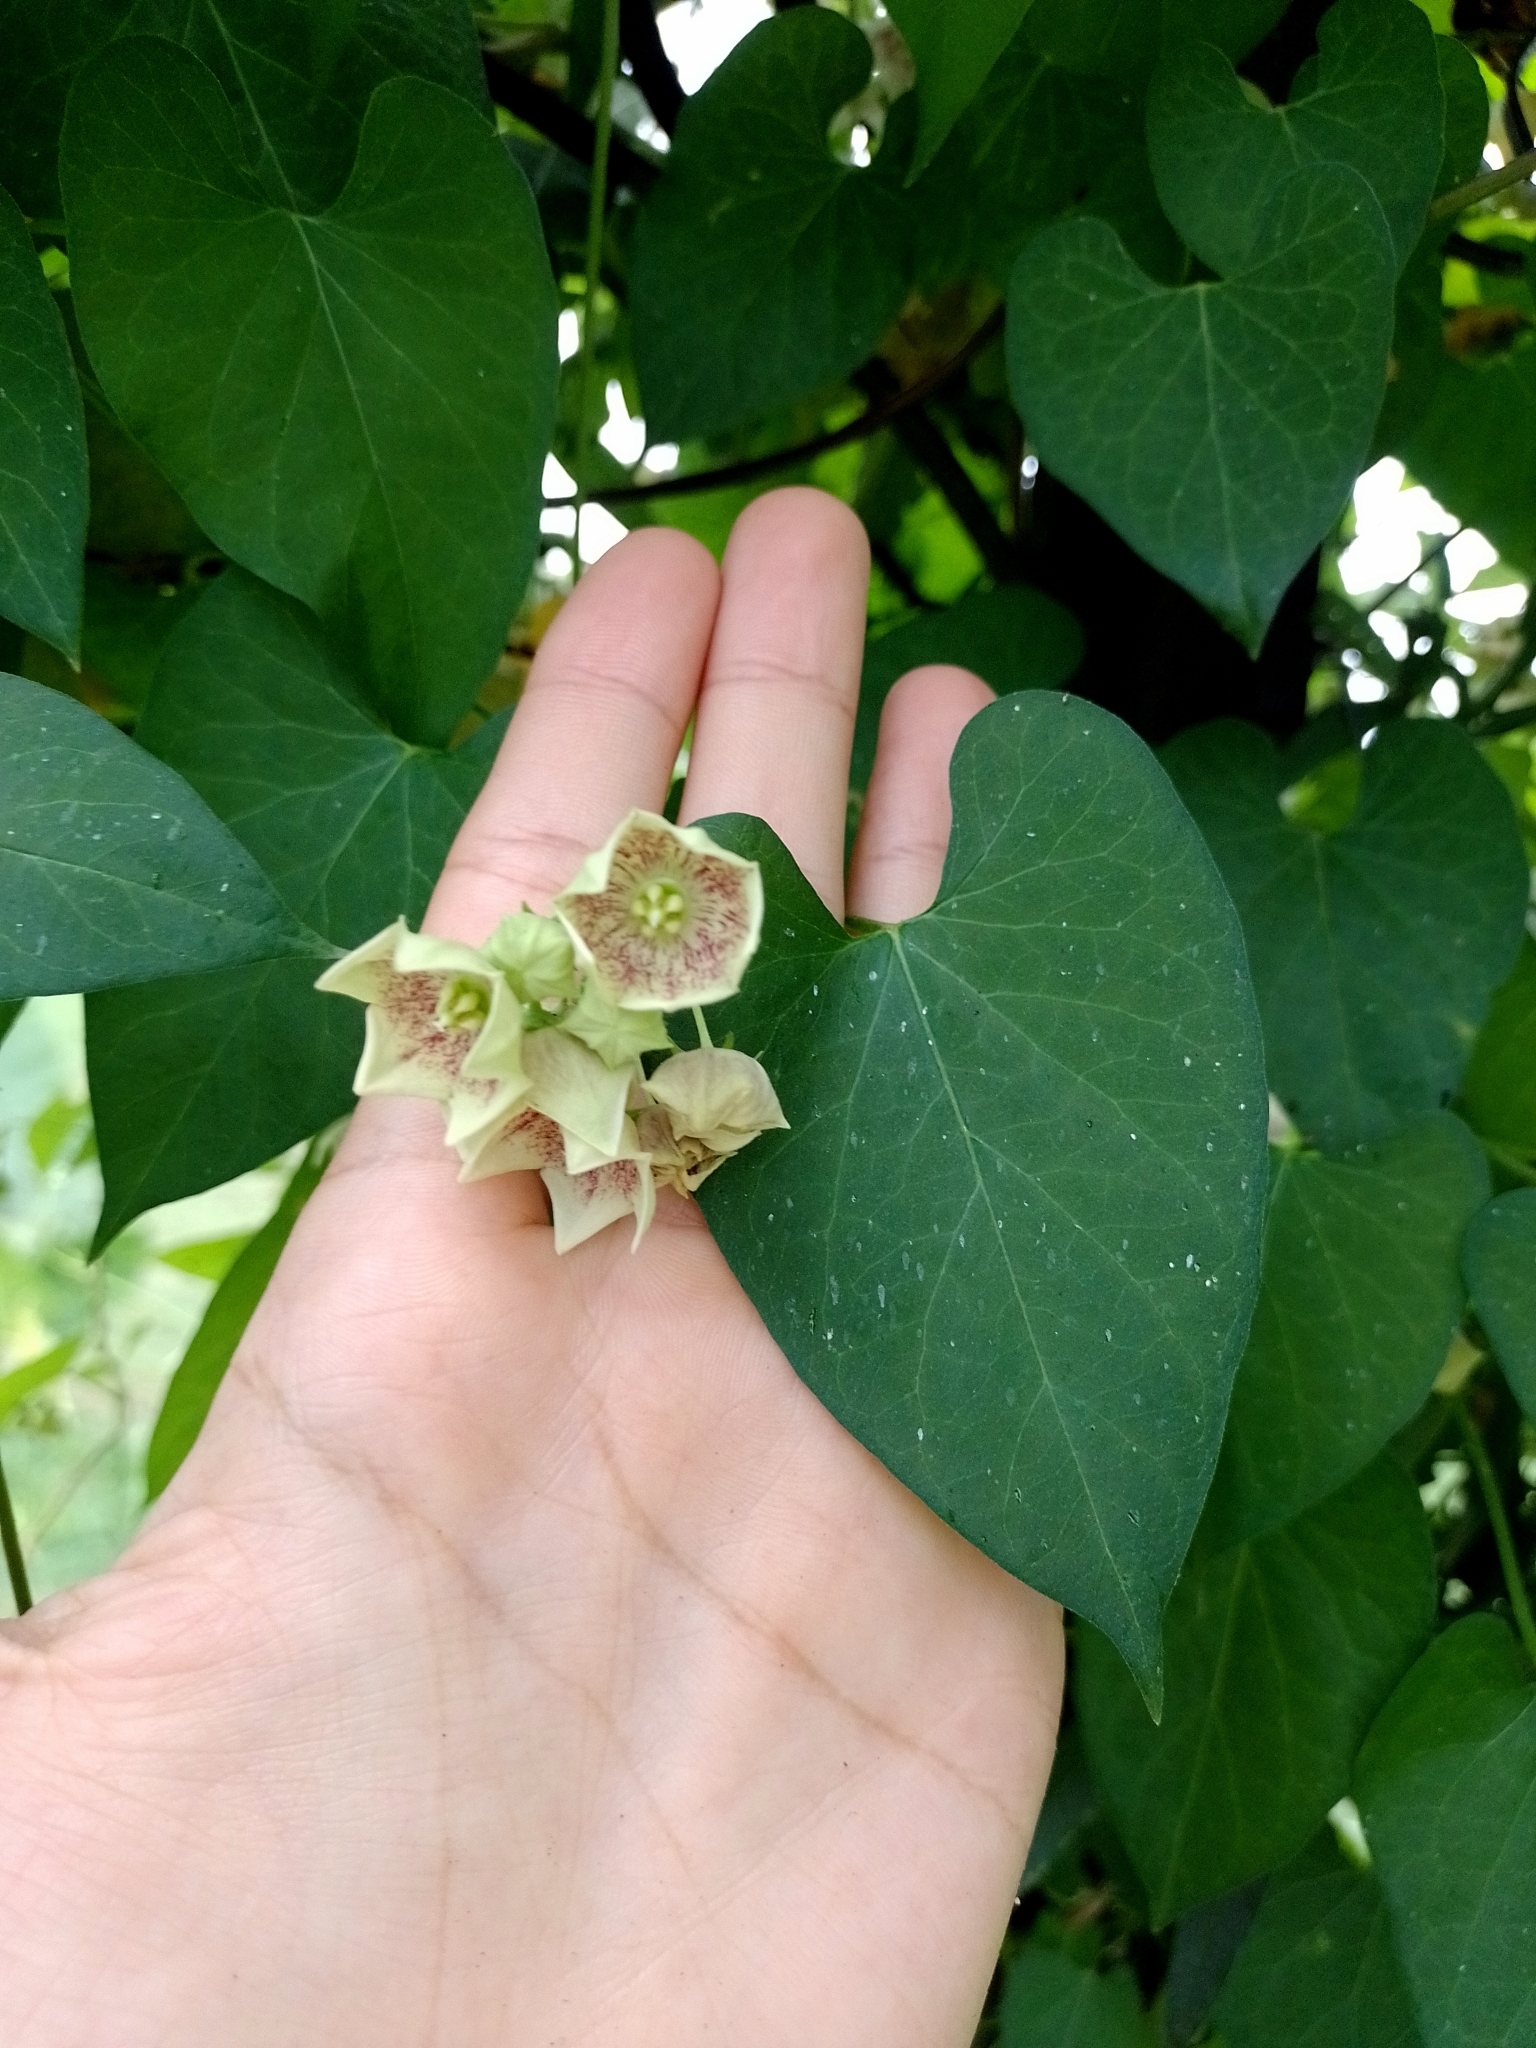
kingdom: Plantae
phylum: Tracheophyta
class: Magnoliopsida
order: Gentianales
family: Apocynaceae
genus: Philibertia
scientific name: Philibertia gilliesii
